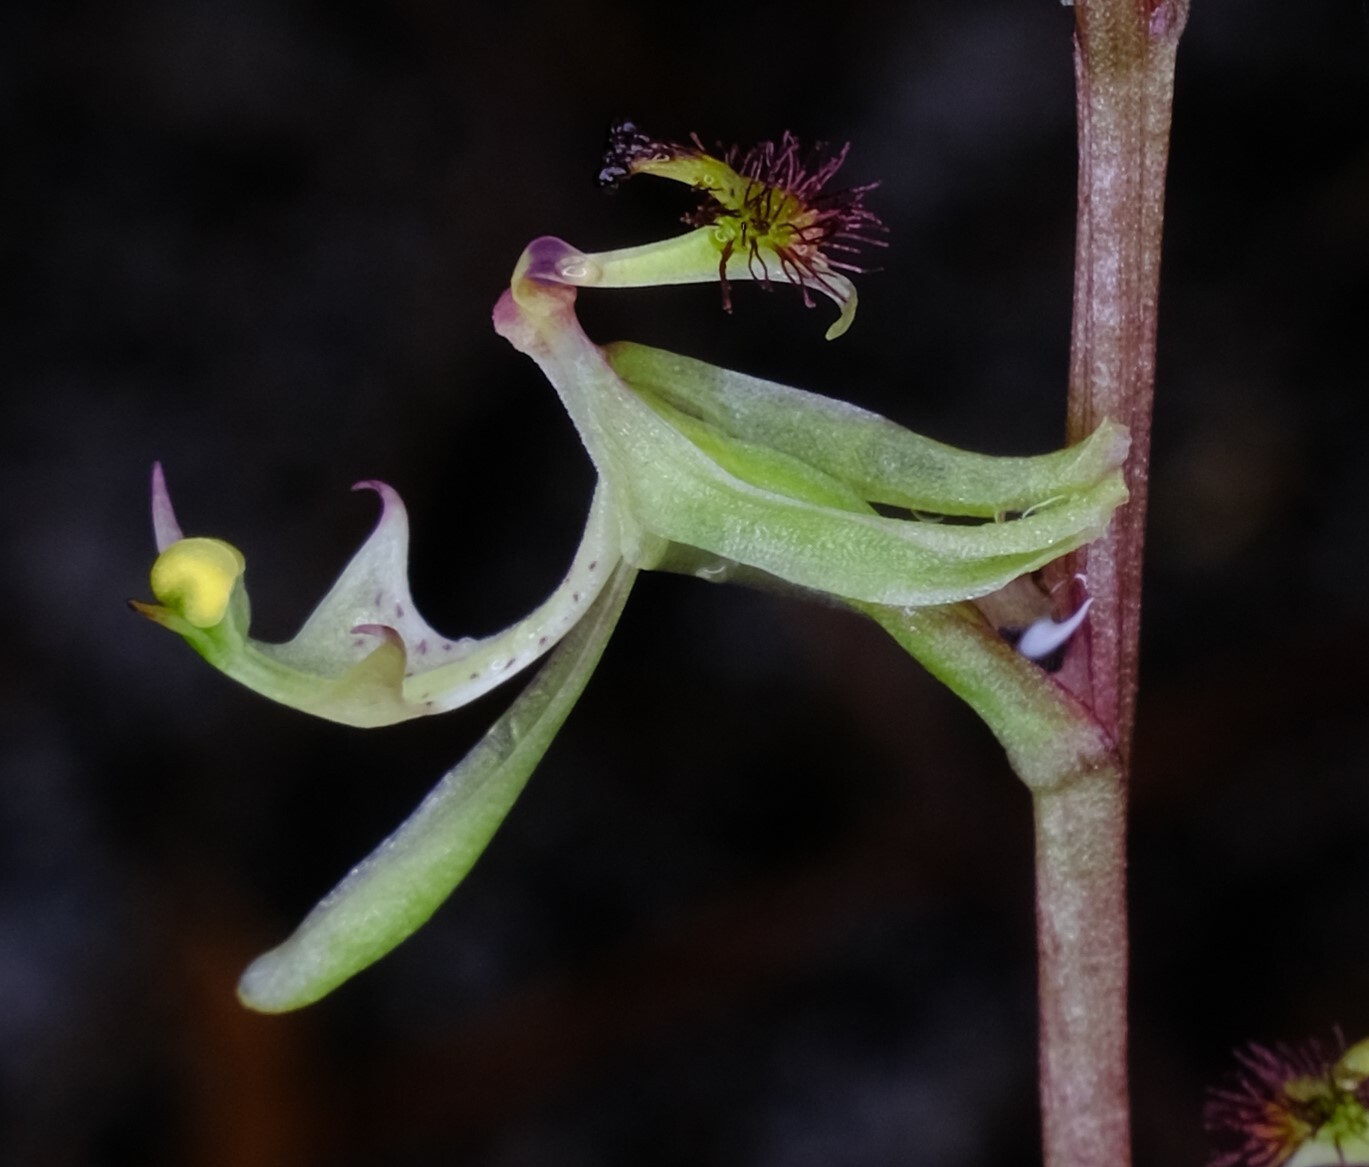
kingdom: Plantae
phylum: Tracheophyta
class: Liliopsida
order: Asparagales
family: Orchidaceae
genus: Arthrochilus
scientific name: Arthrochilus prolixus
